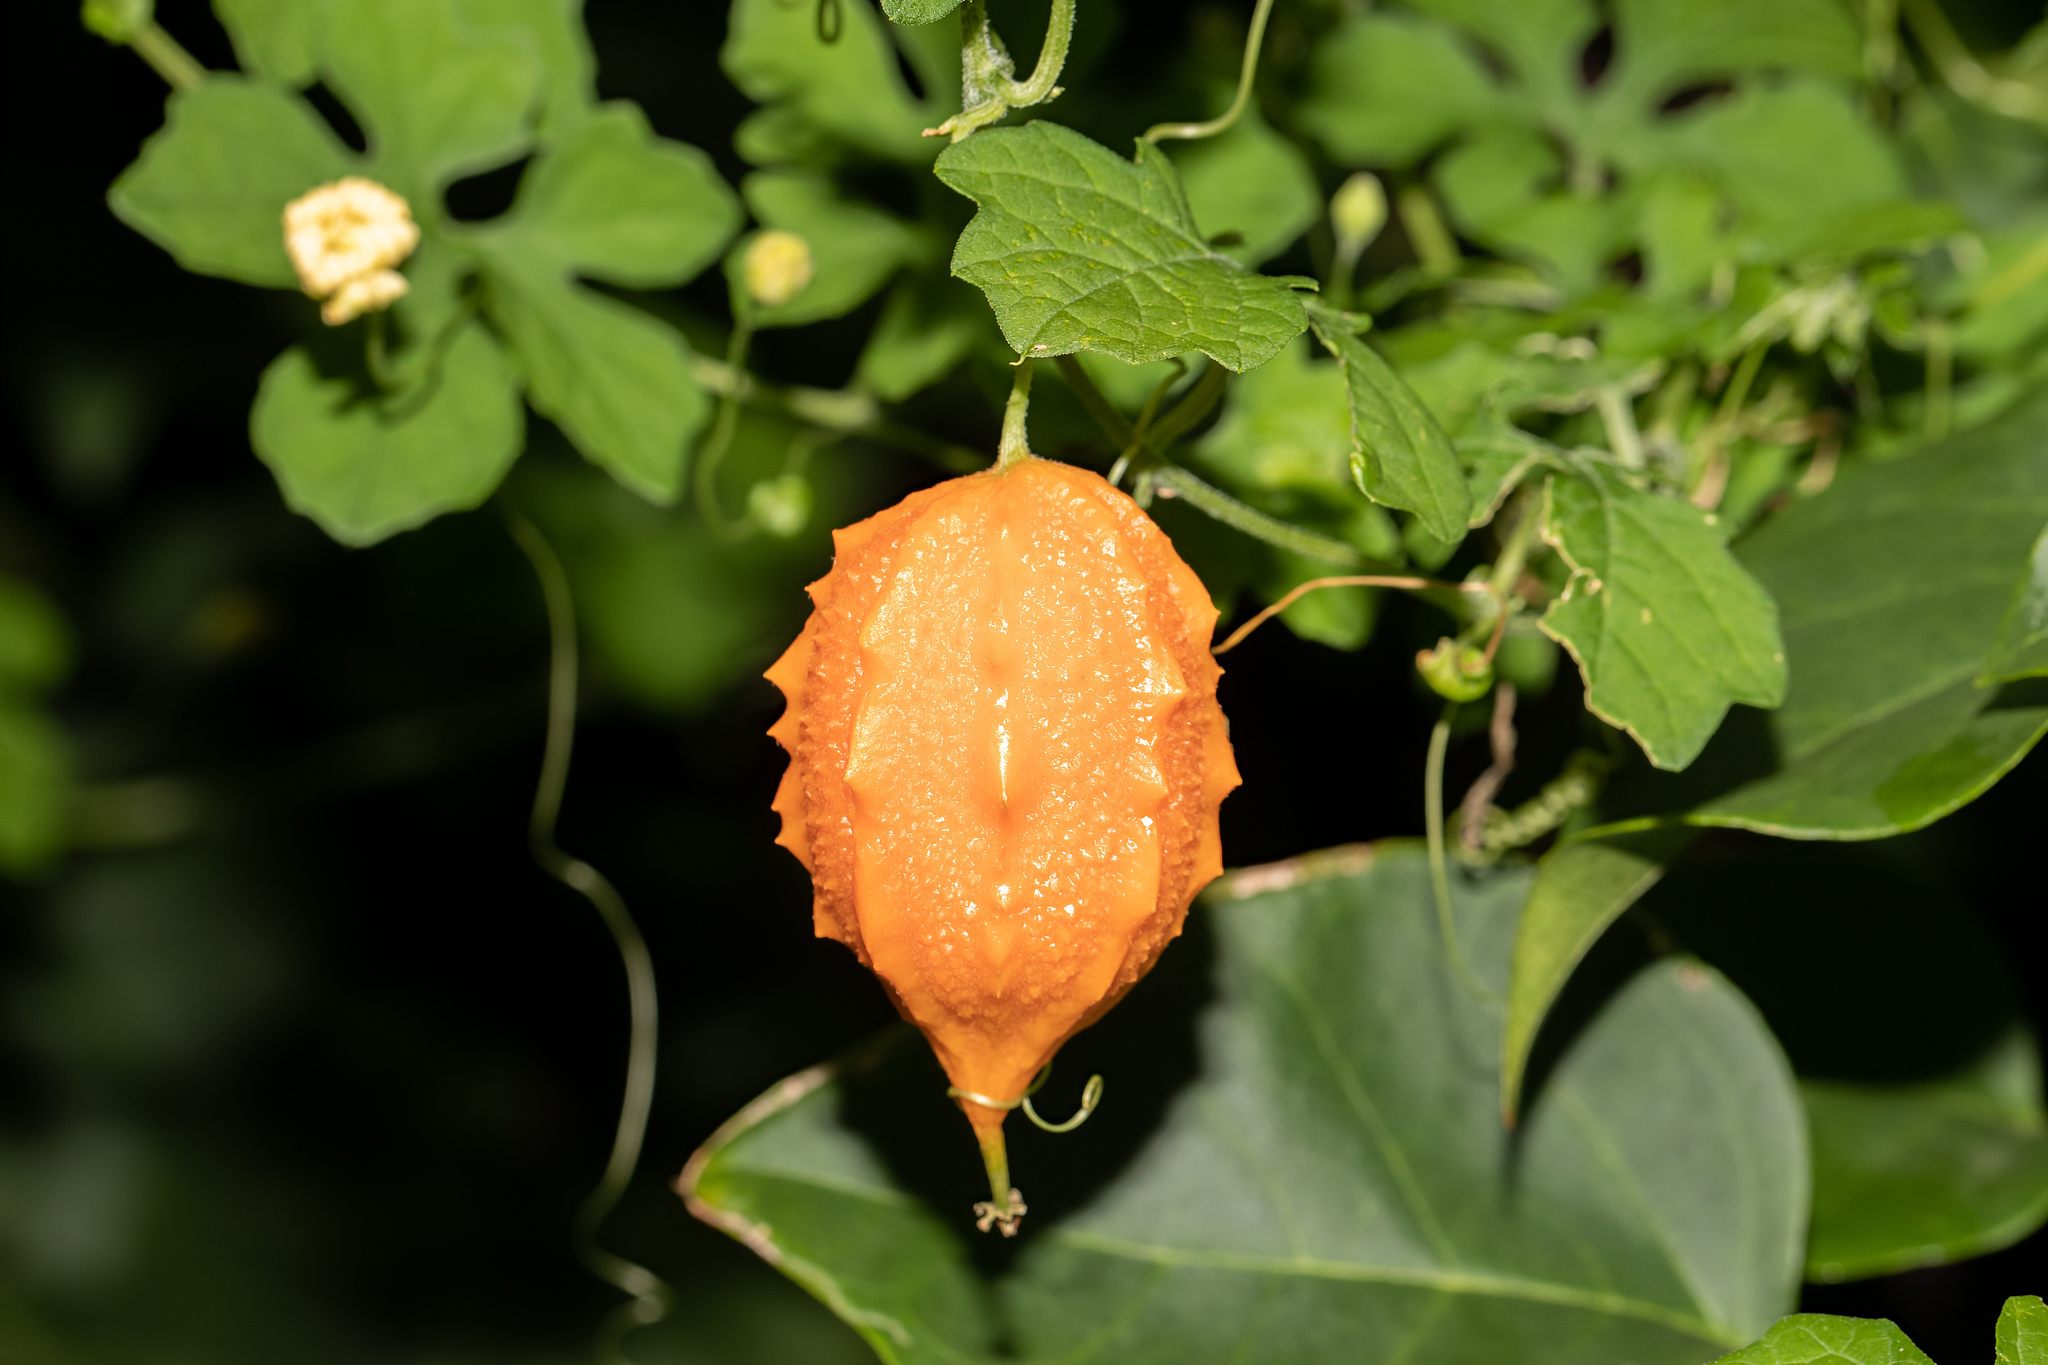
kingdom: Plantae
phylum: Tracheophyta
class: Magnoliopsida
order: Cucurbitales
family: Cucurbitaceae
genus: Momordica
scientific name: Momordica charantia
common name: Balsampear
